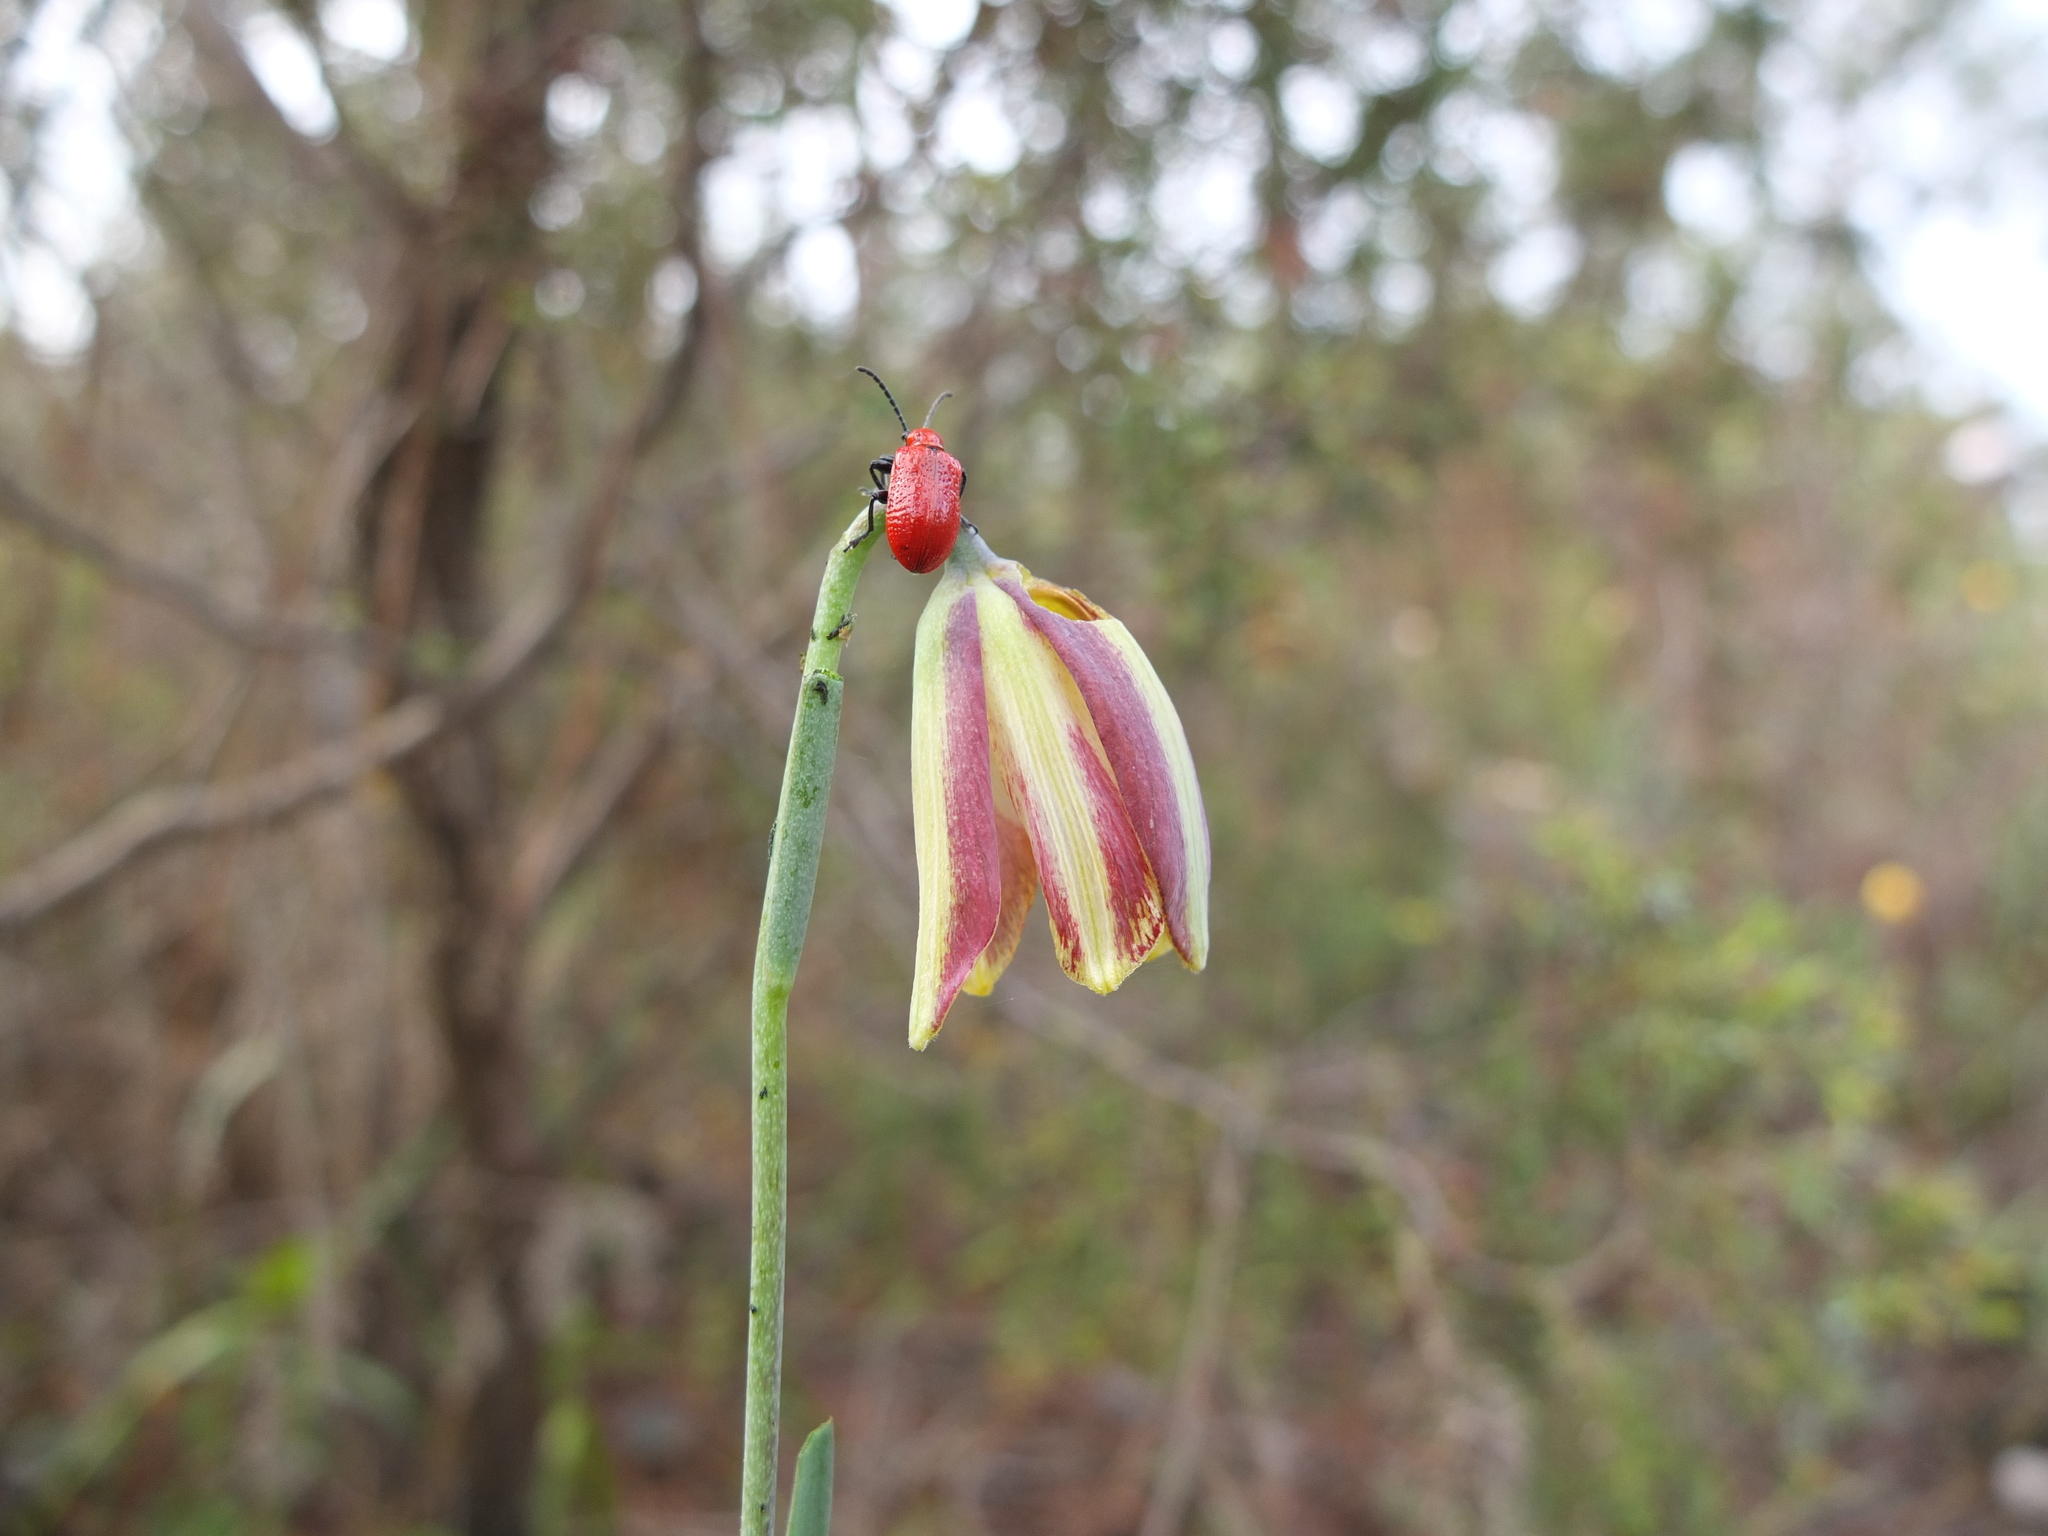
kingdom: Plantae
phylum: Tracheophyta
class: Liliopsida
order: Liliales
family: Liliaceae
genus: Fritillaria
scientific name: Fritillaria lusitanica
